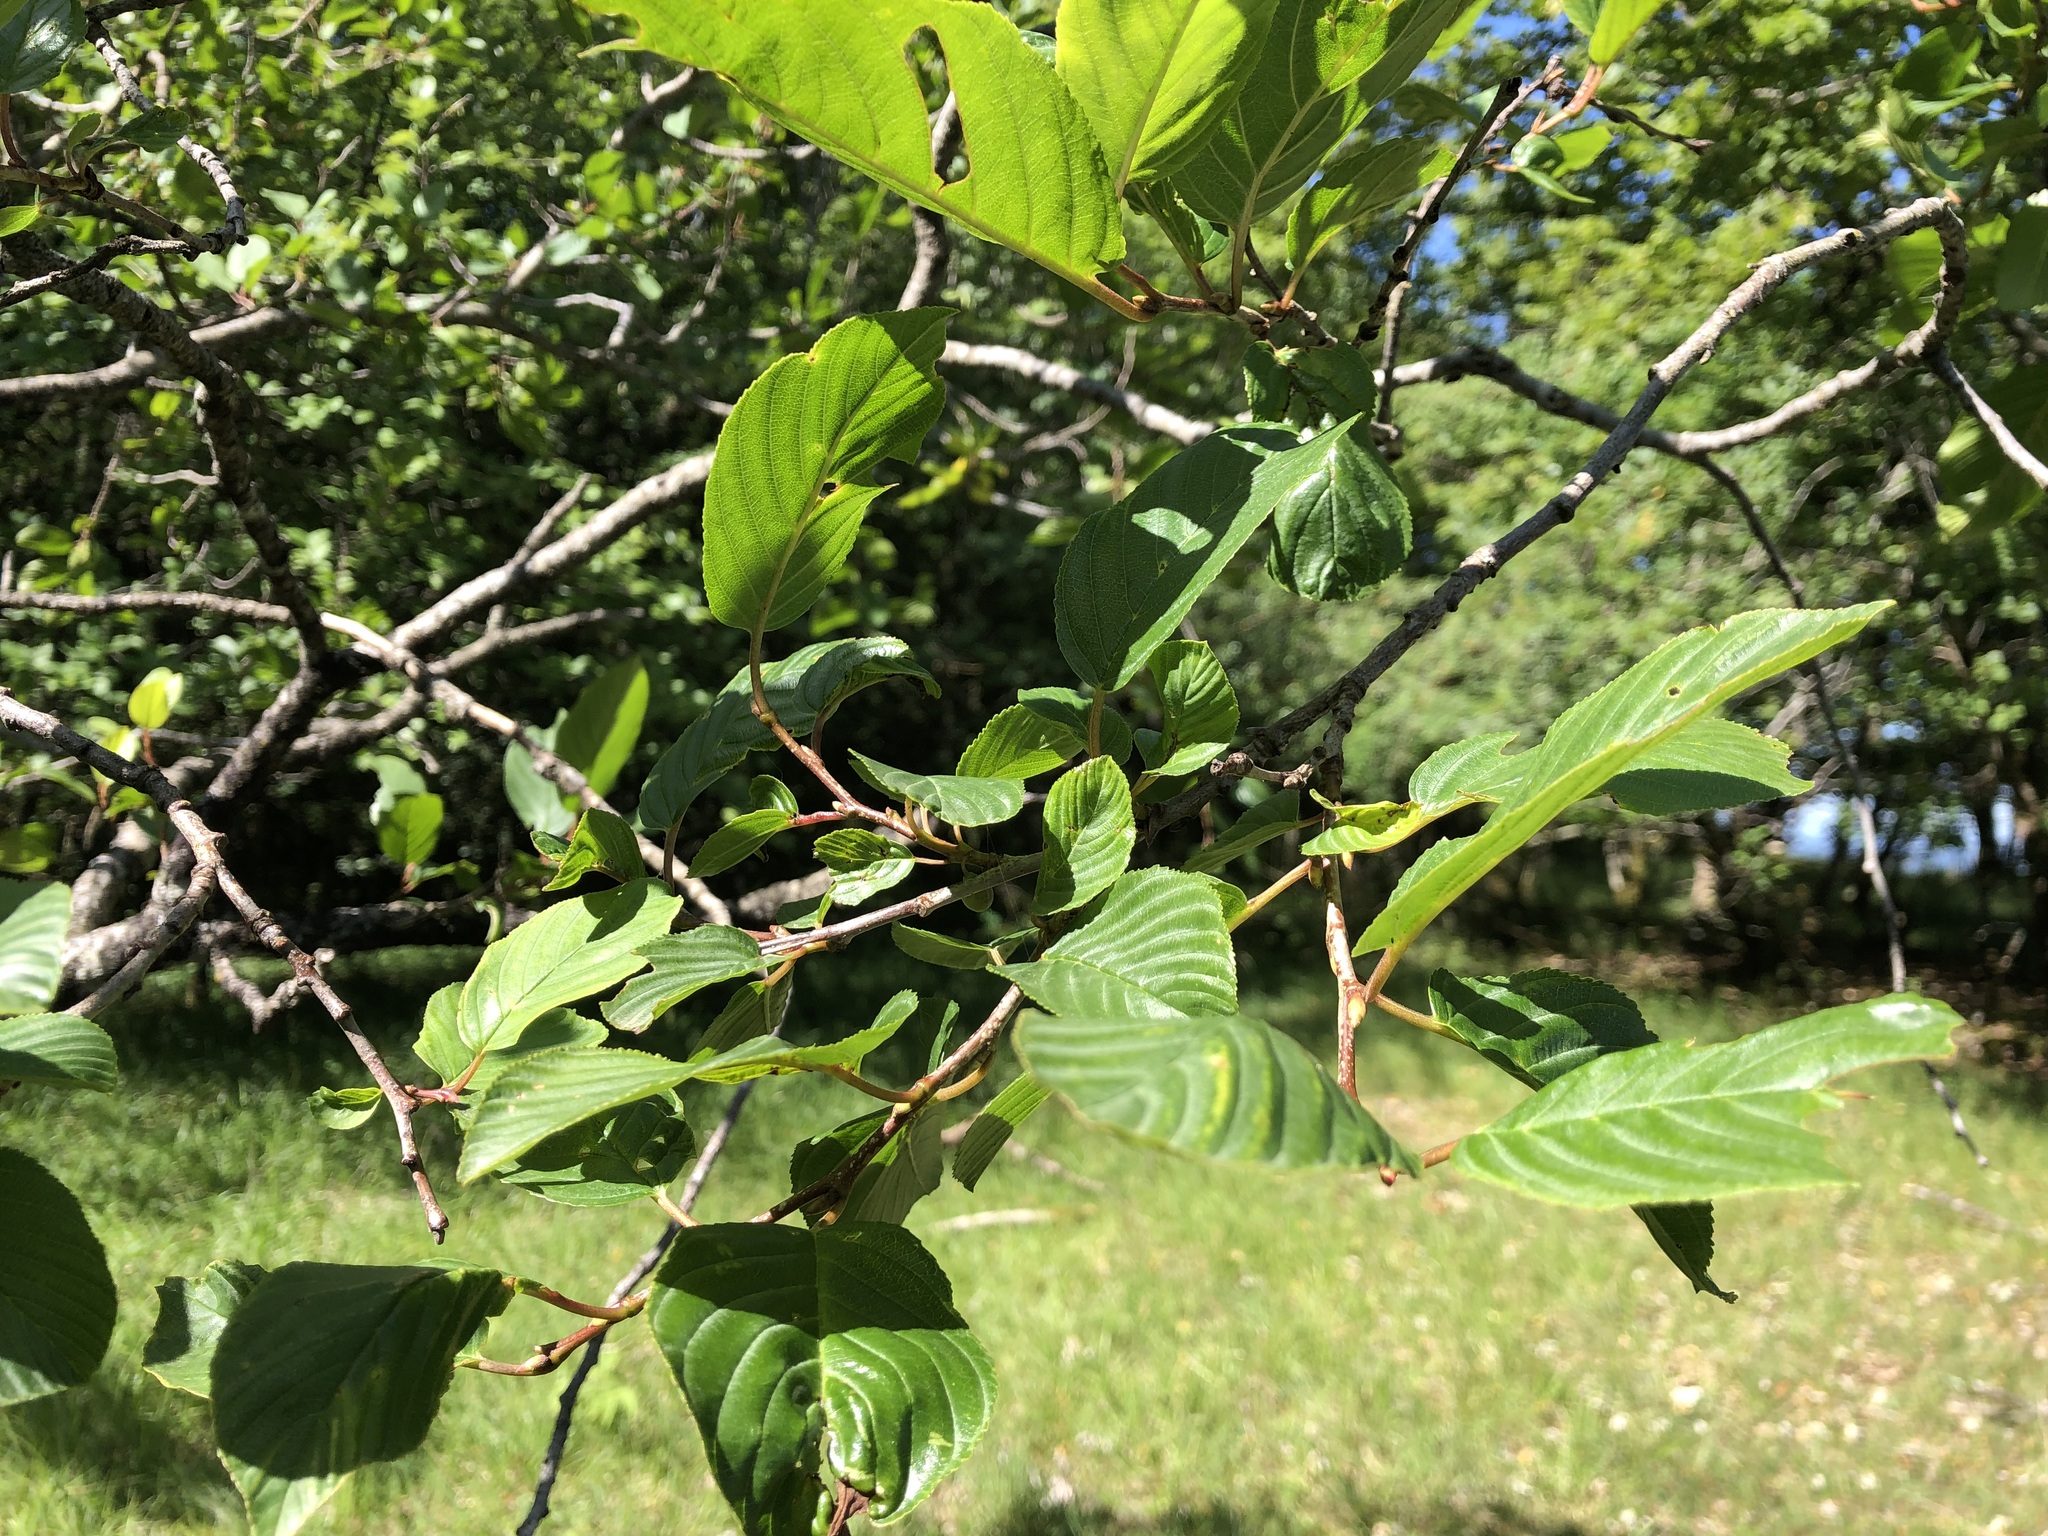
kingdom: Plantae
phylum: Tracheophyta
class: Magnoliopsida
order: Rosales
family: Rhamnaceae
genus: Frangula
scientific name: Frangula alnus
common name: Alder buckthorn
